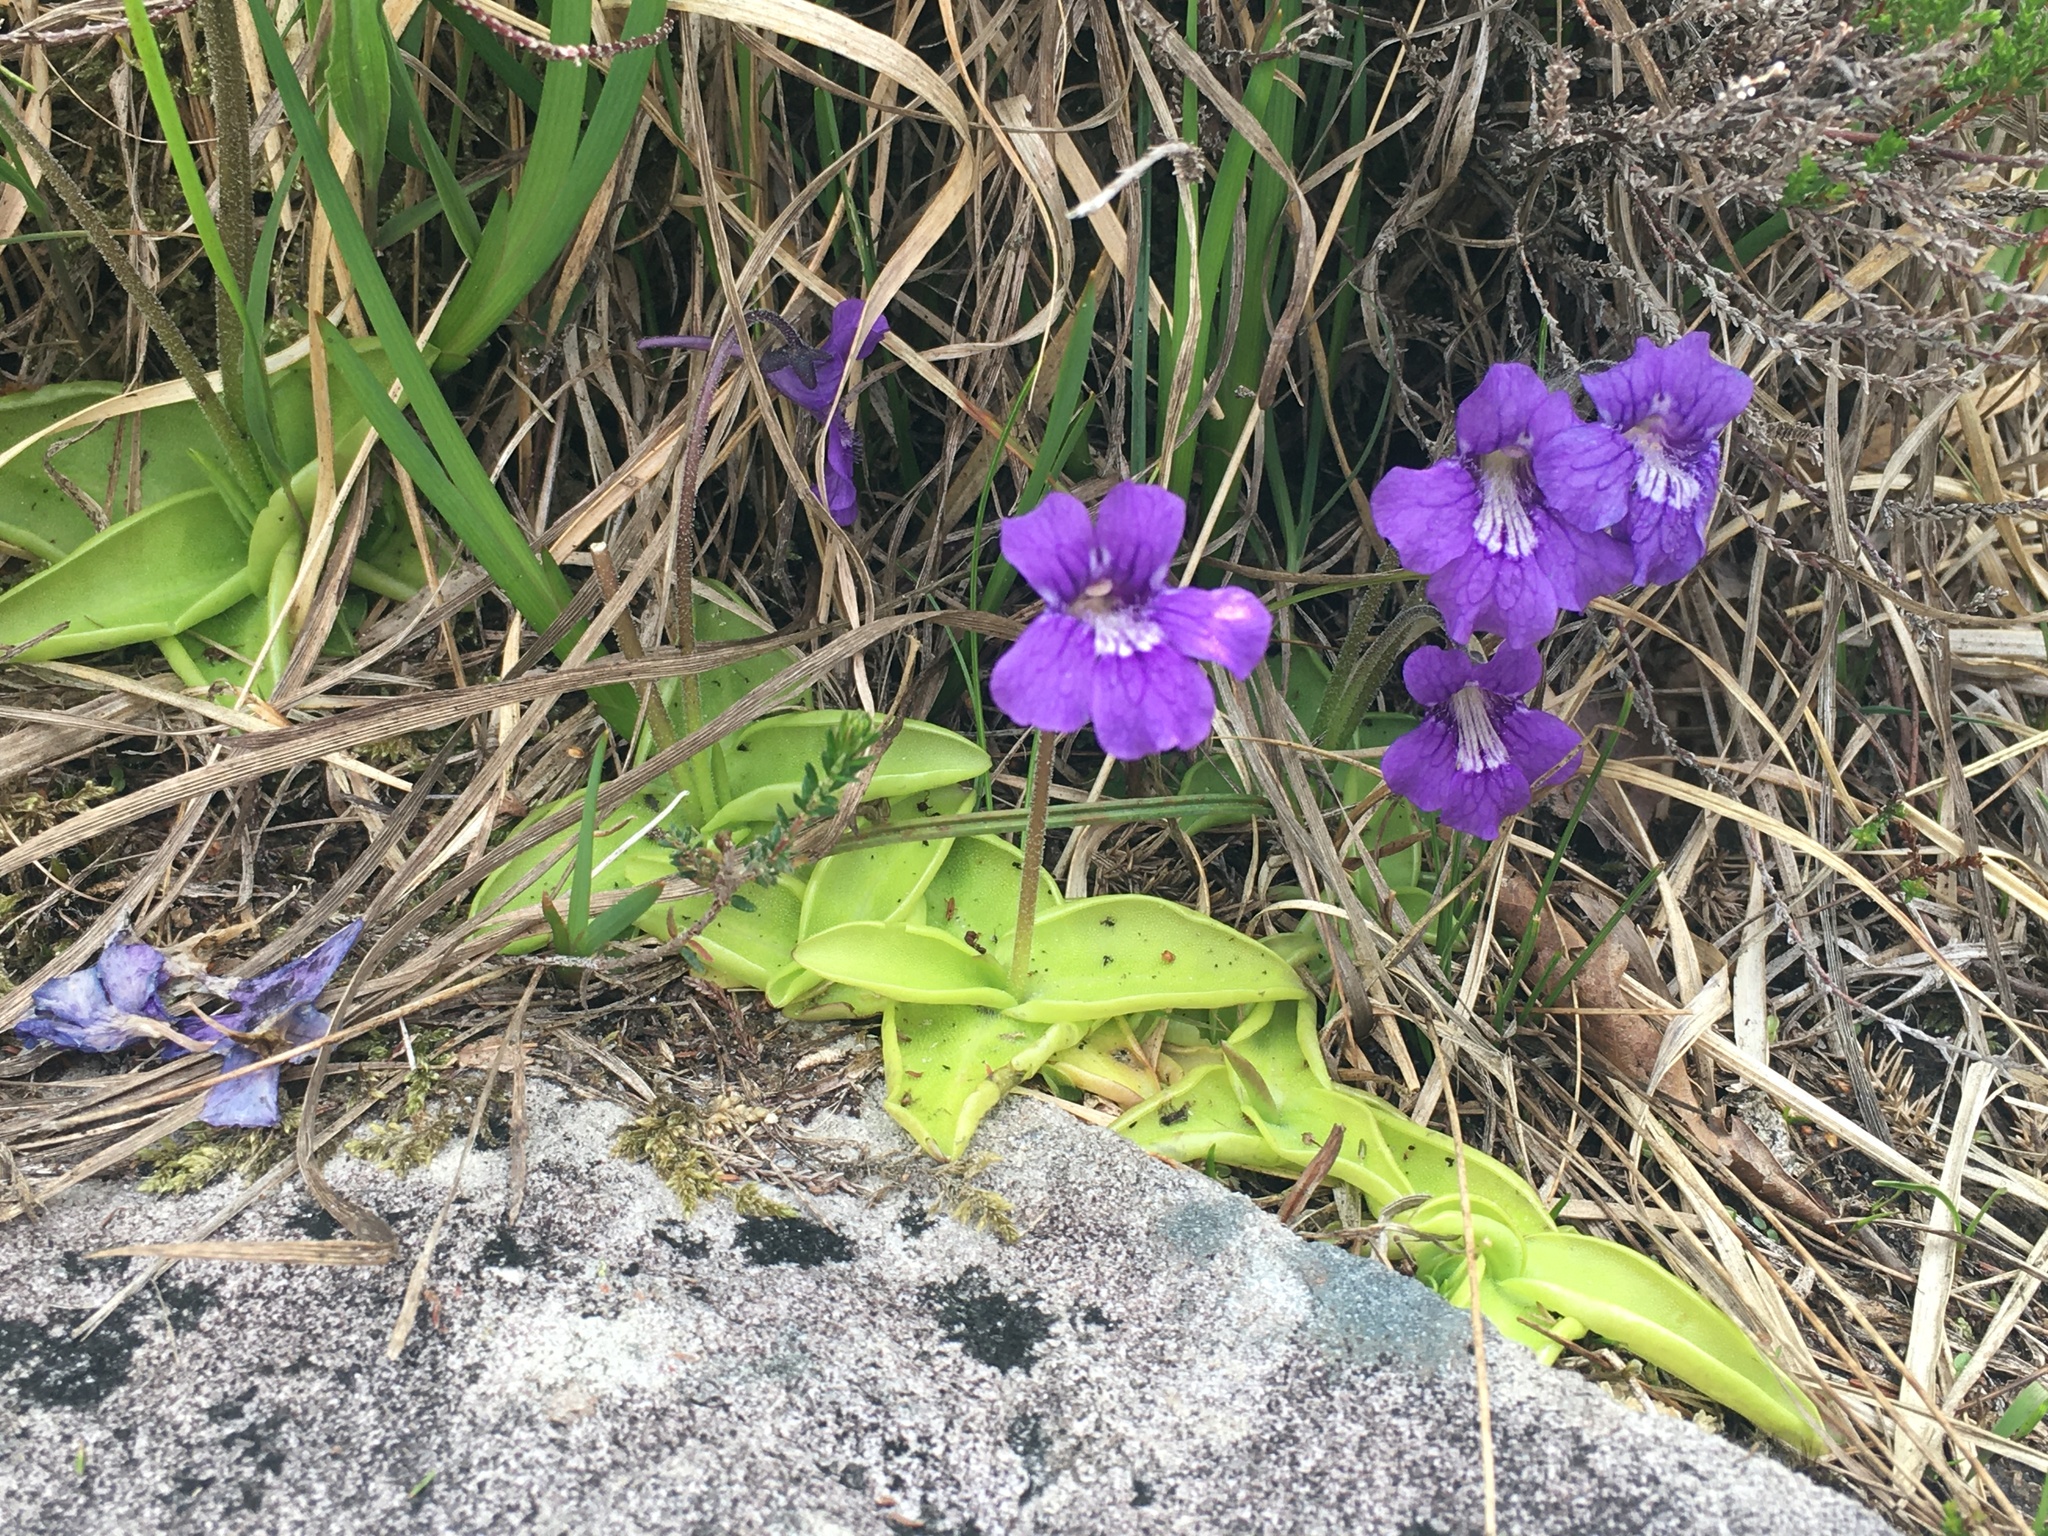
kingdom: Plantae
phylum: Tracheophyta
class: Magnoliopsida
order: Lamiales
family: Lentibulariaceae
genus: Pinguicula
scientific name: Pinguicula grandiflora
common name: Large-flowered butterwort
